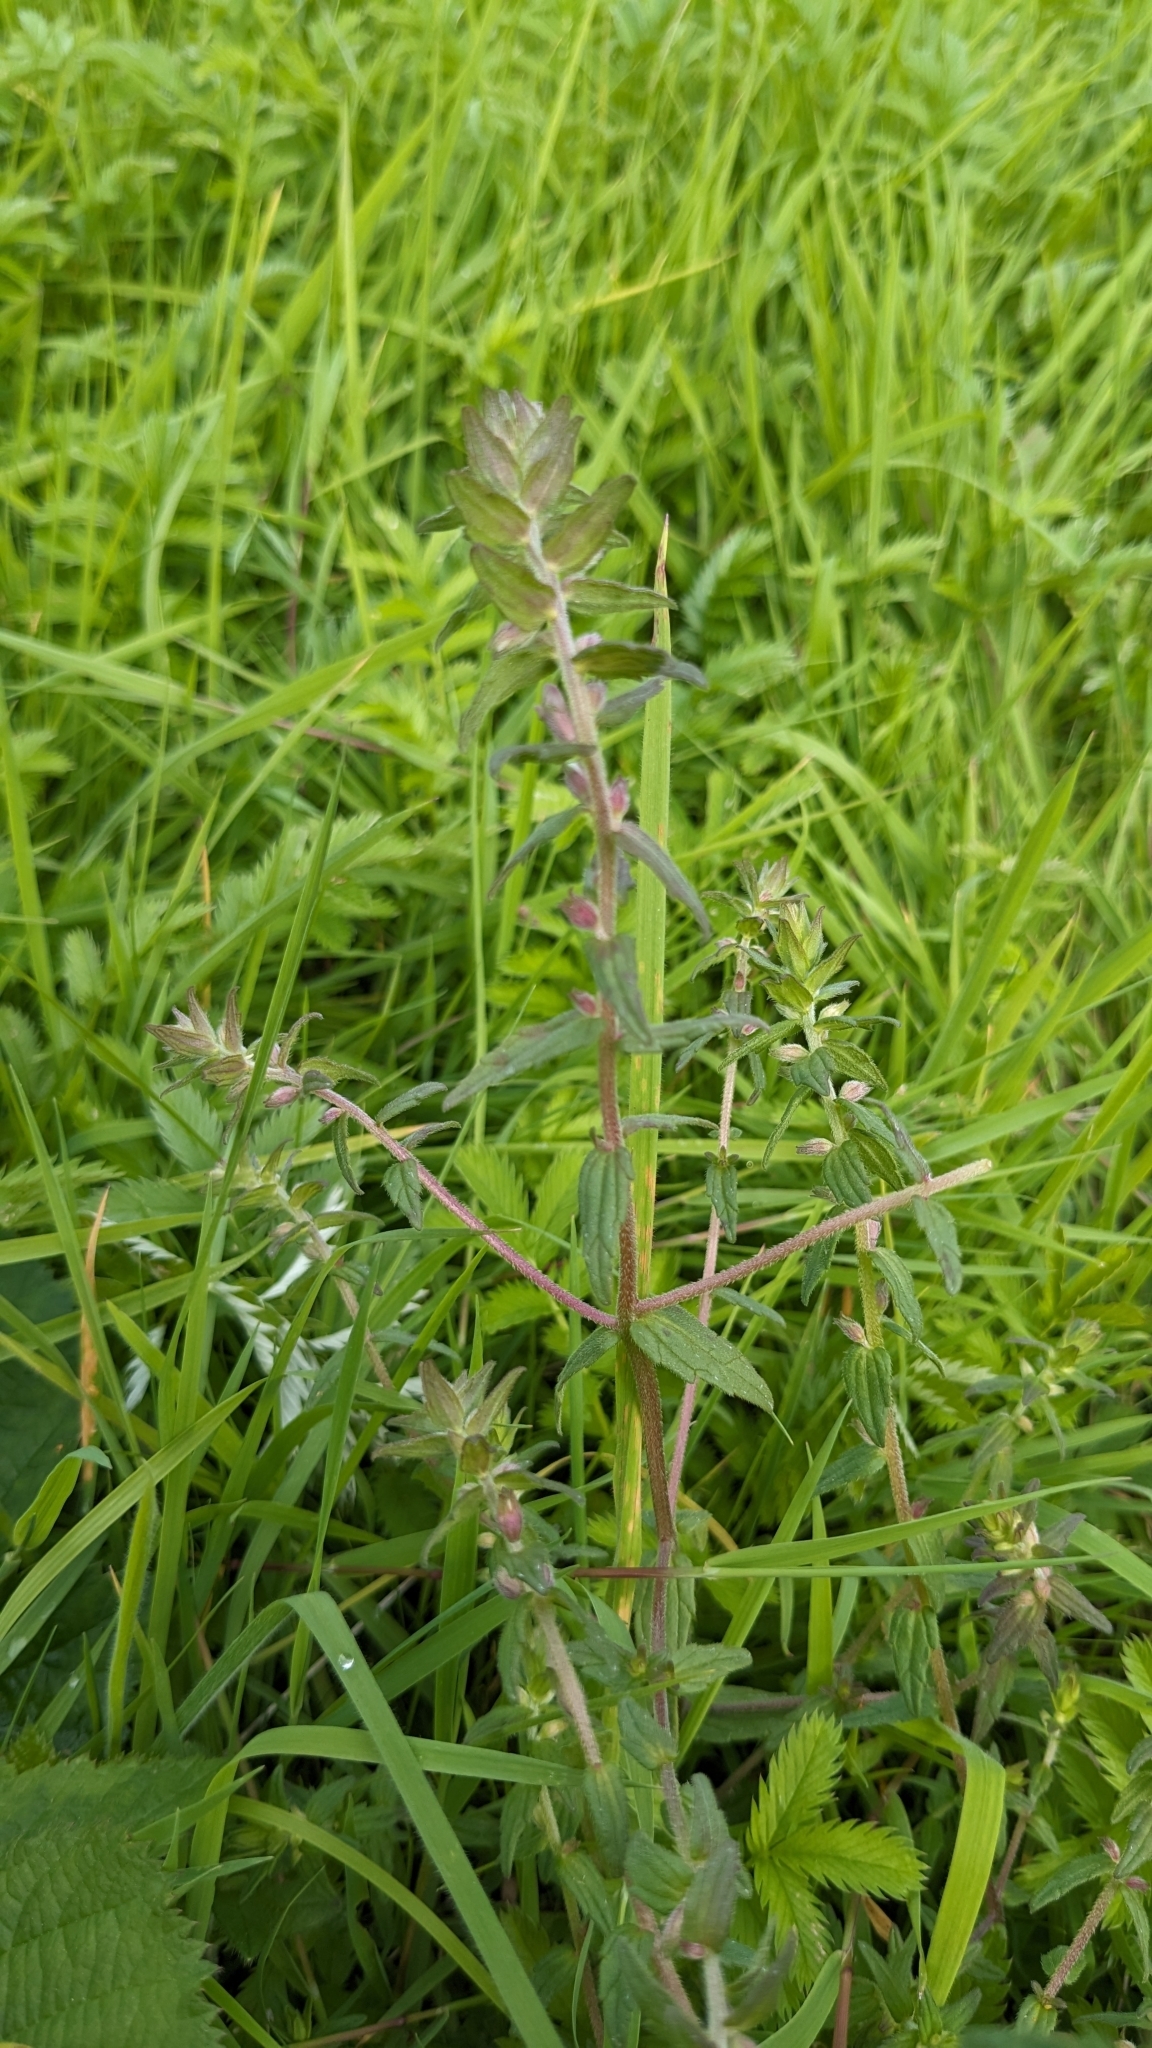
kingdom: Plantae
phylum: Tracheophyta
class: Magnoliopsida
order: Lamiales
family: Orobanchaceae
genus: Odontites
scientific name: Odontites vernus
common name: Red bartsia
